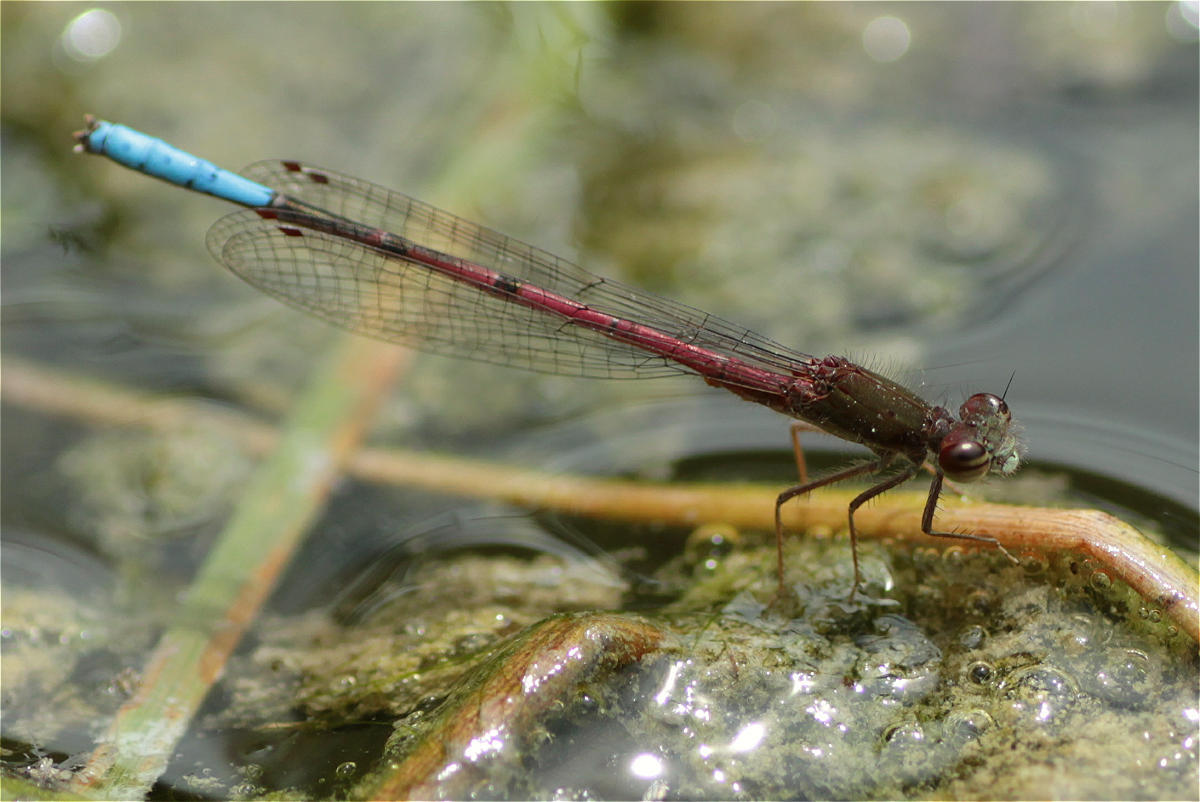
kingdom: Animalia
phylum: Arthropoda
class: Insecta
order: Odonata
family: Coenagrionidae
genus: Oxyallagma
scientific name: Oxyallagma dissidens
